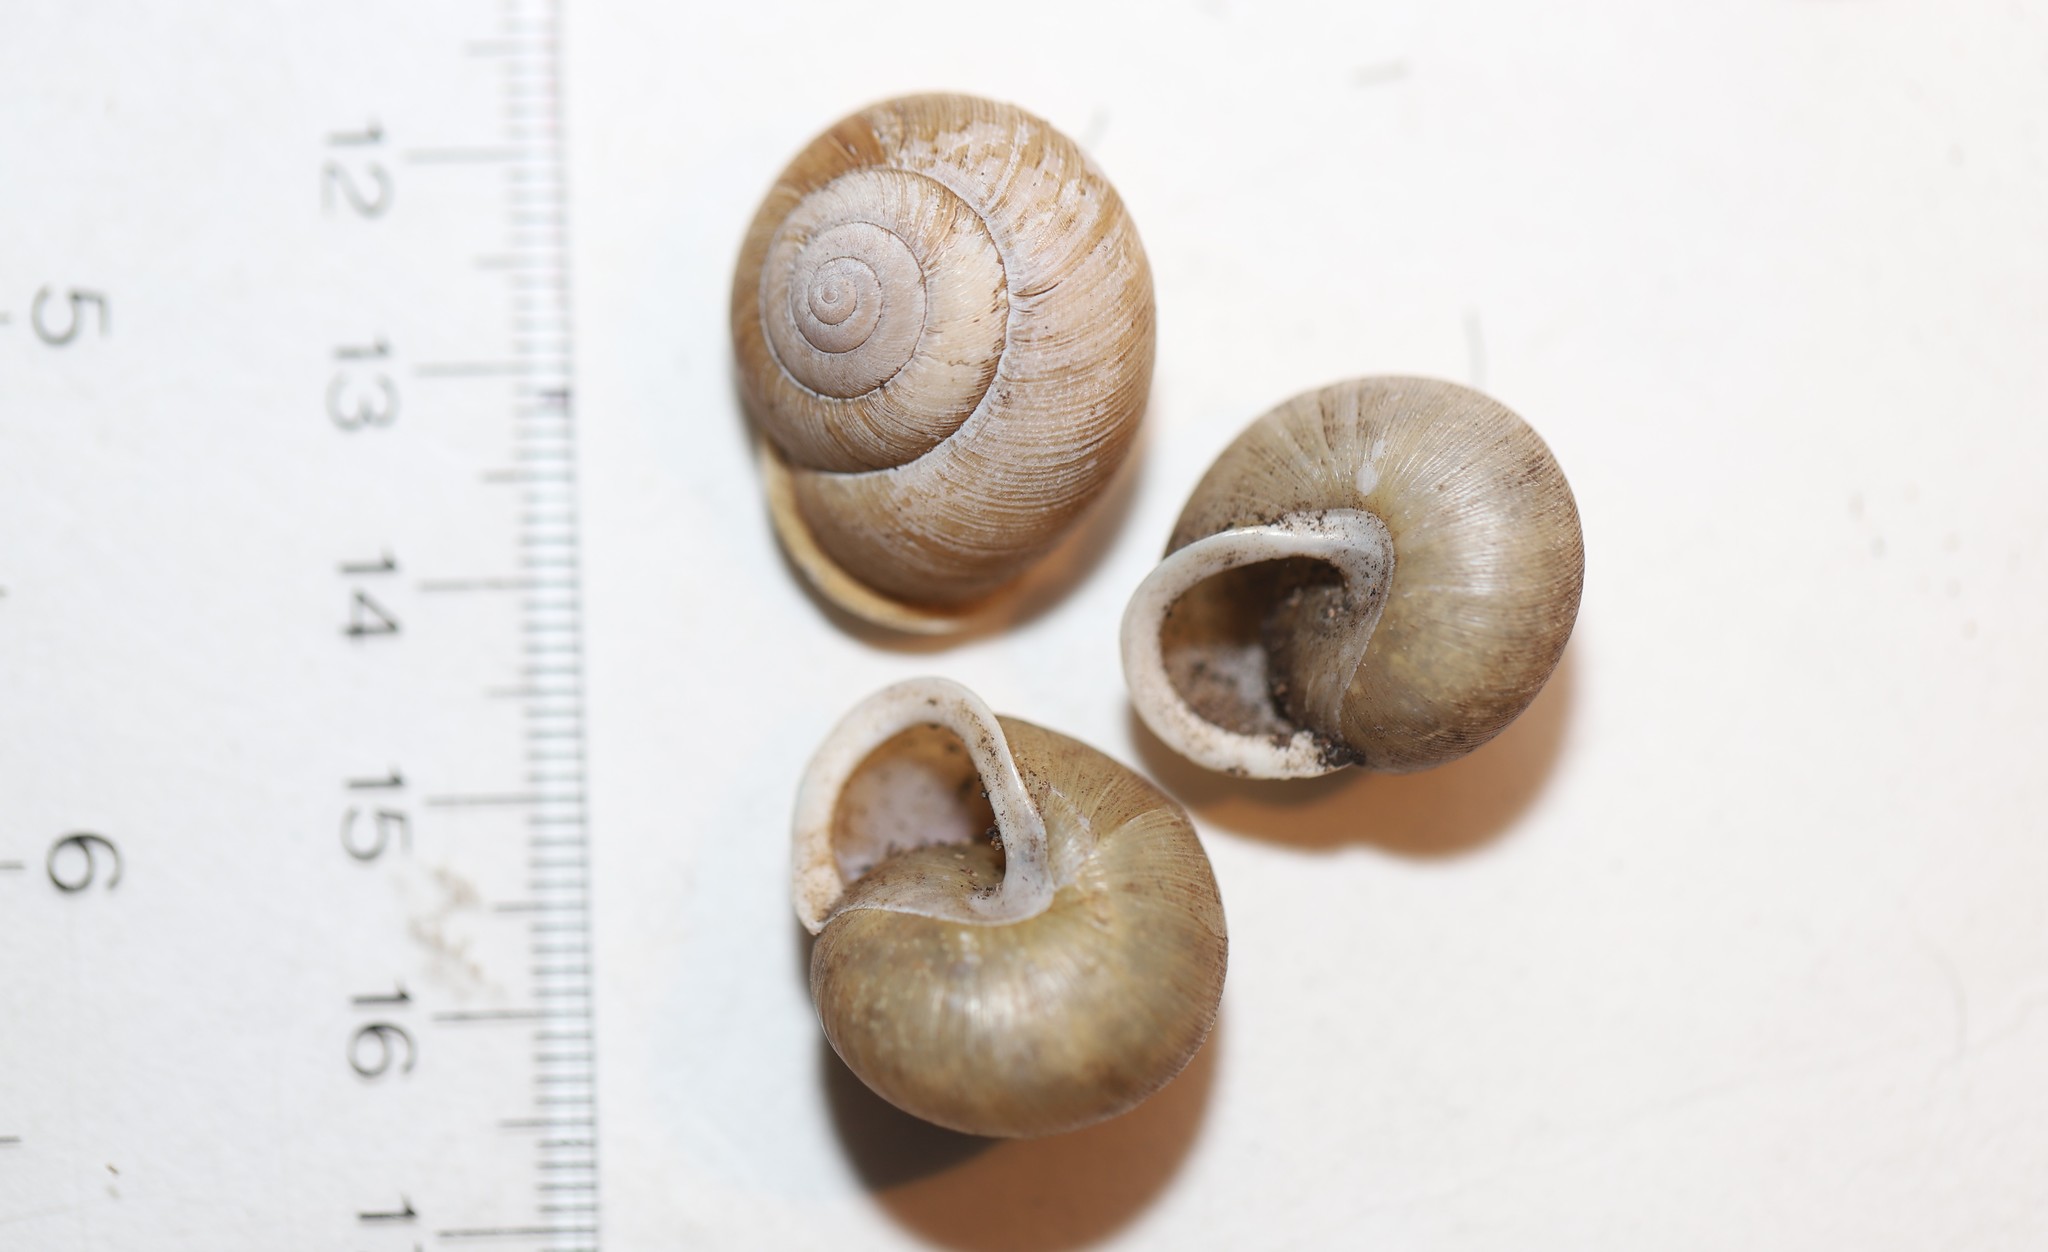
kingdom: Animalia
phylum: Mollusca
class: Gastropoda
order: Stylommatophora
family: Polygyridae
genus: Neohelix
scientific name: Neohelix albolabris
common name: Eastern whitelip
